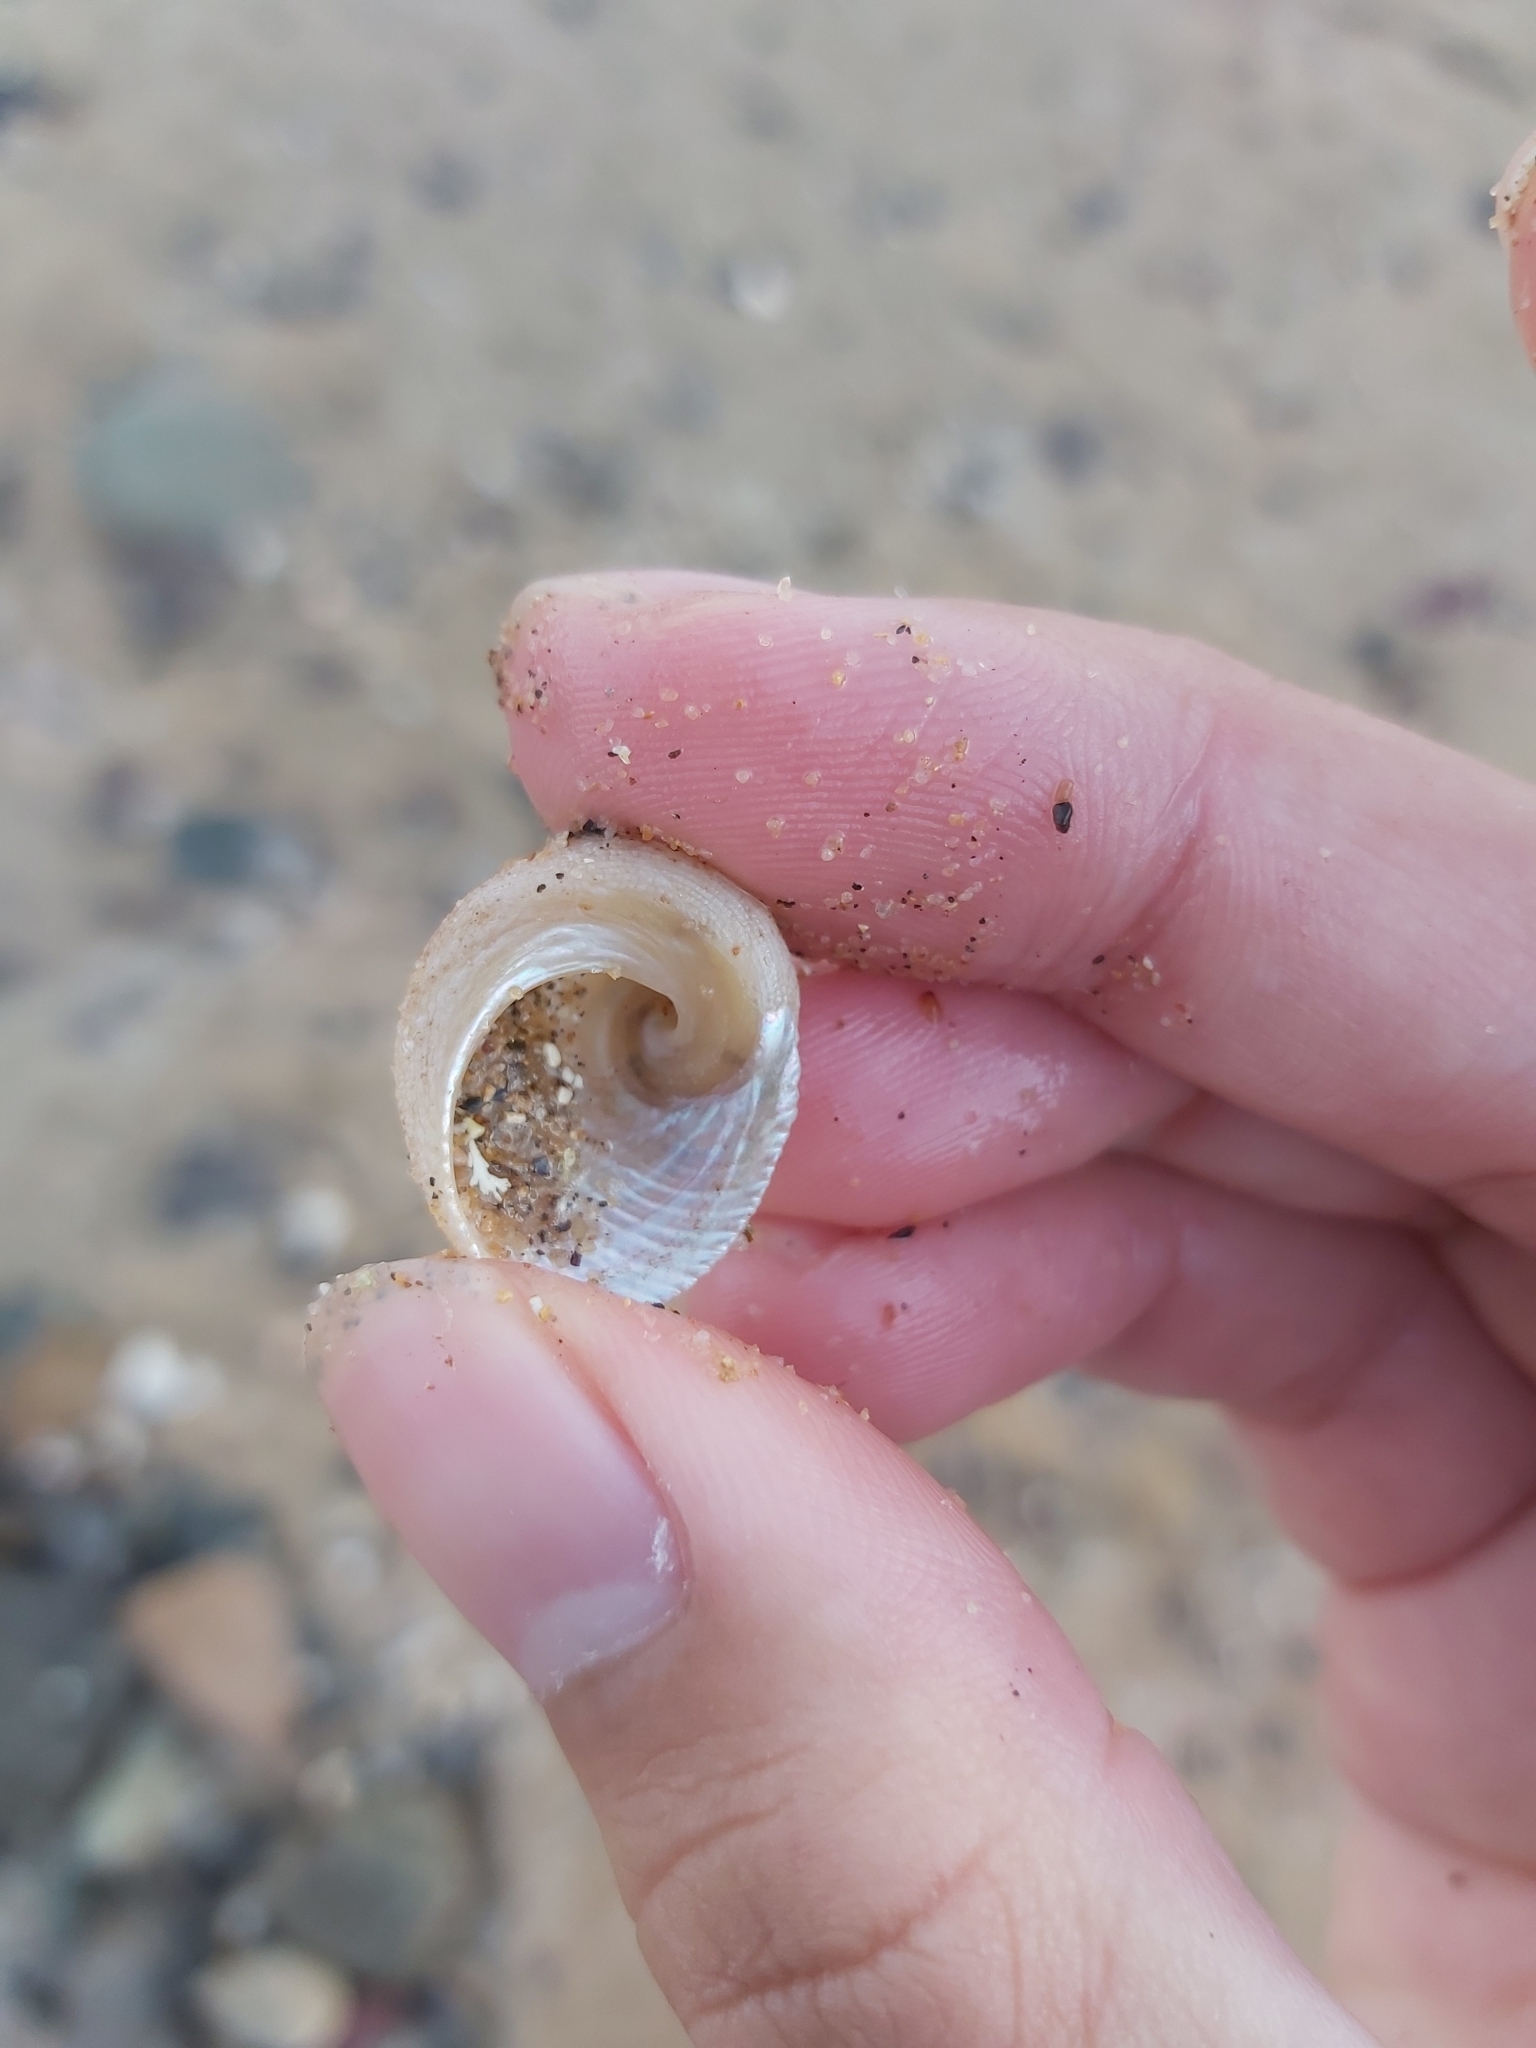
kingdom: Animalia
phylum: Mollusca
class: Gastropoda
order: Seguenziida
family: Chilodontaidae
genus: Granata
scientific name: Granata imbricata
